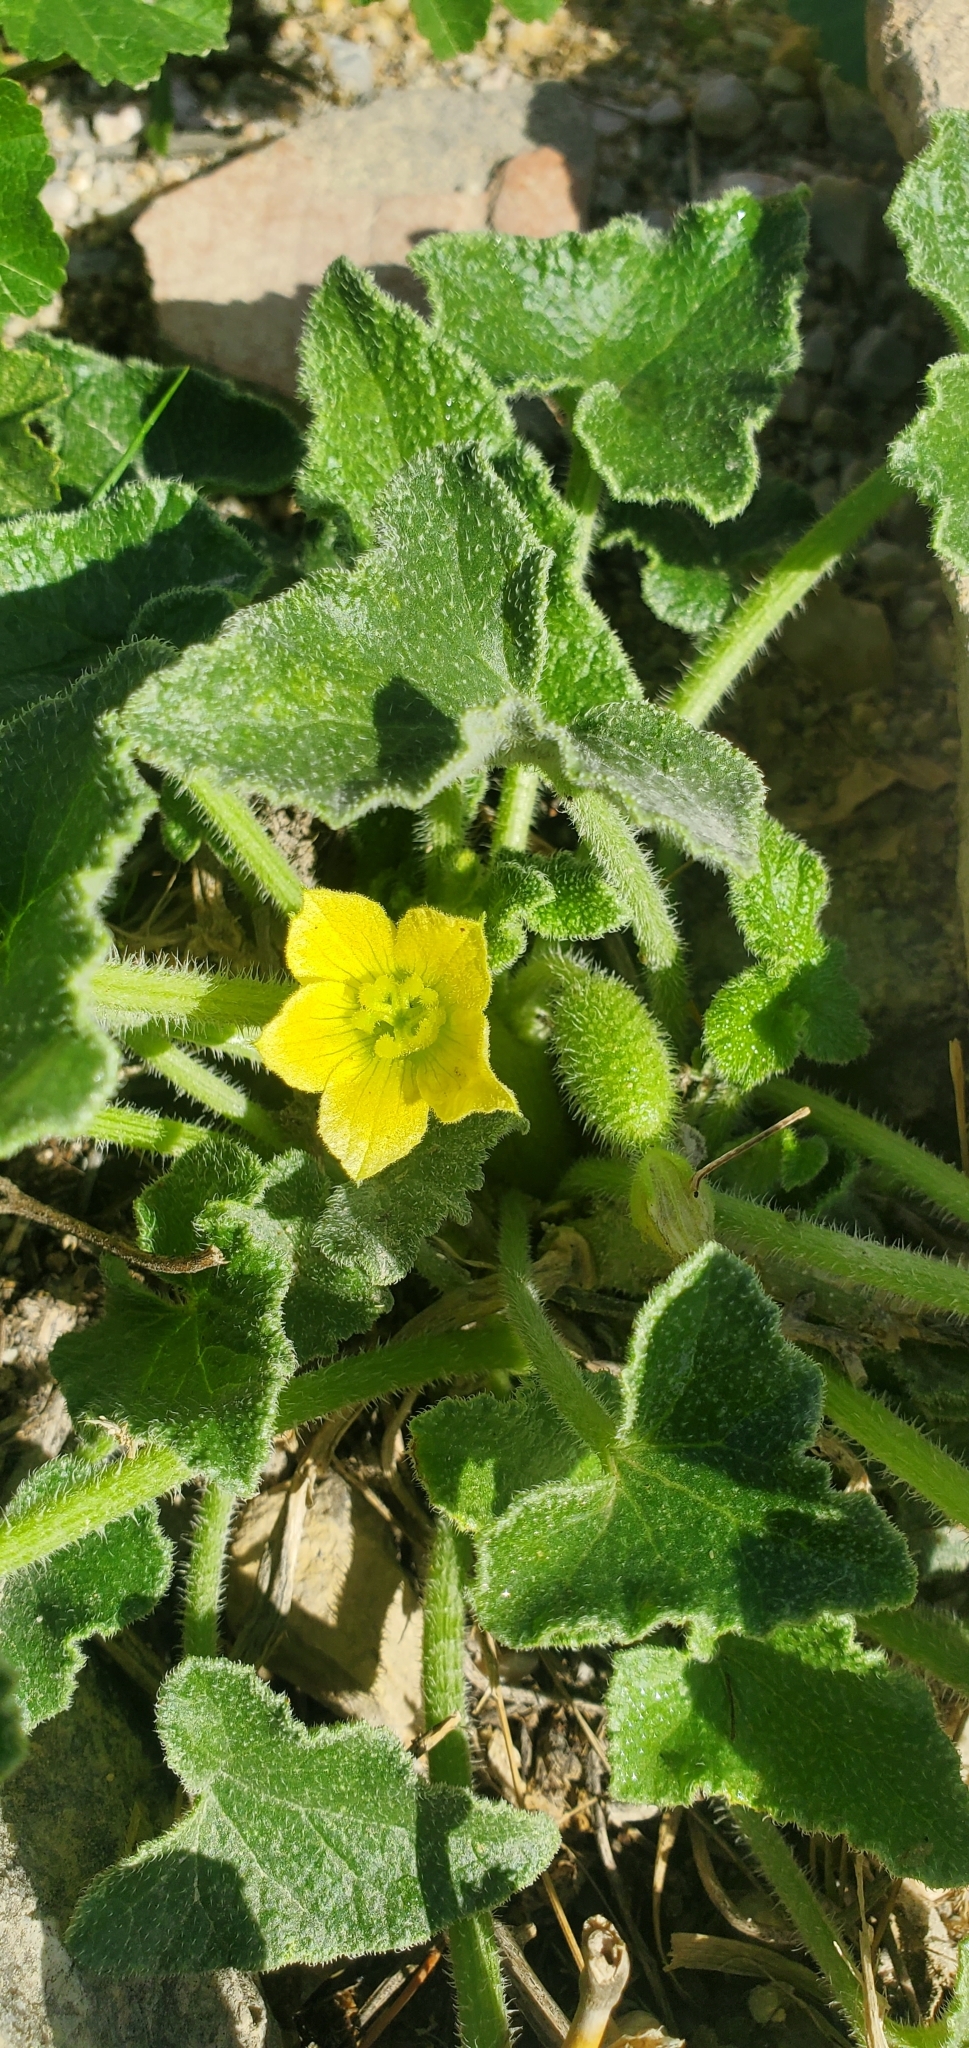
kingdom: Plantae
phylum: Tracheophyta
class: Magnoliopsida
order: Cucurbitales
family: Cucurbitaceae
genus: Ecballium
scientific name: Ecballium elaterium
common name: Squirting cucumber
